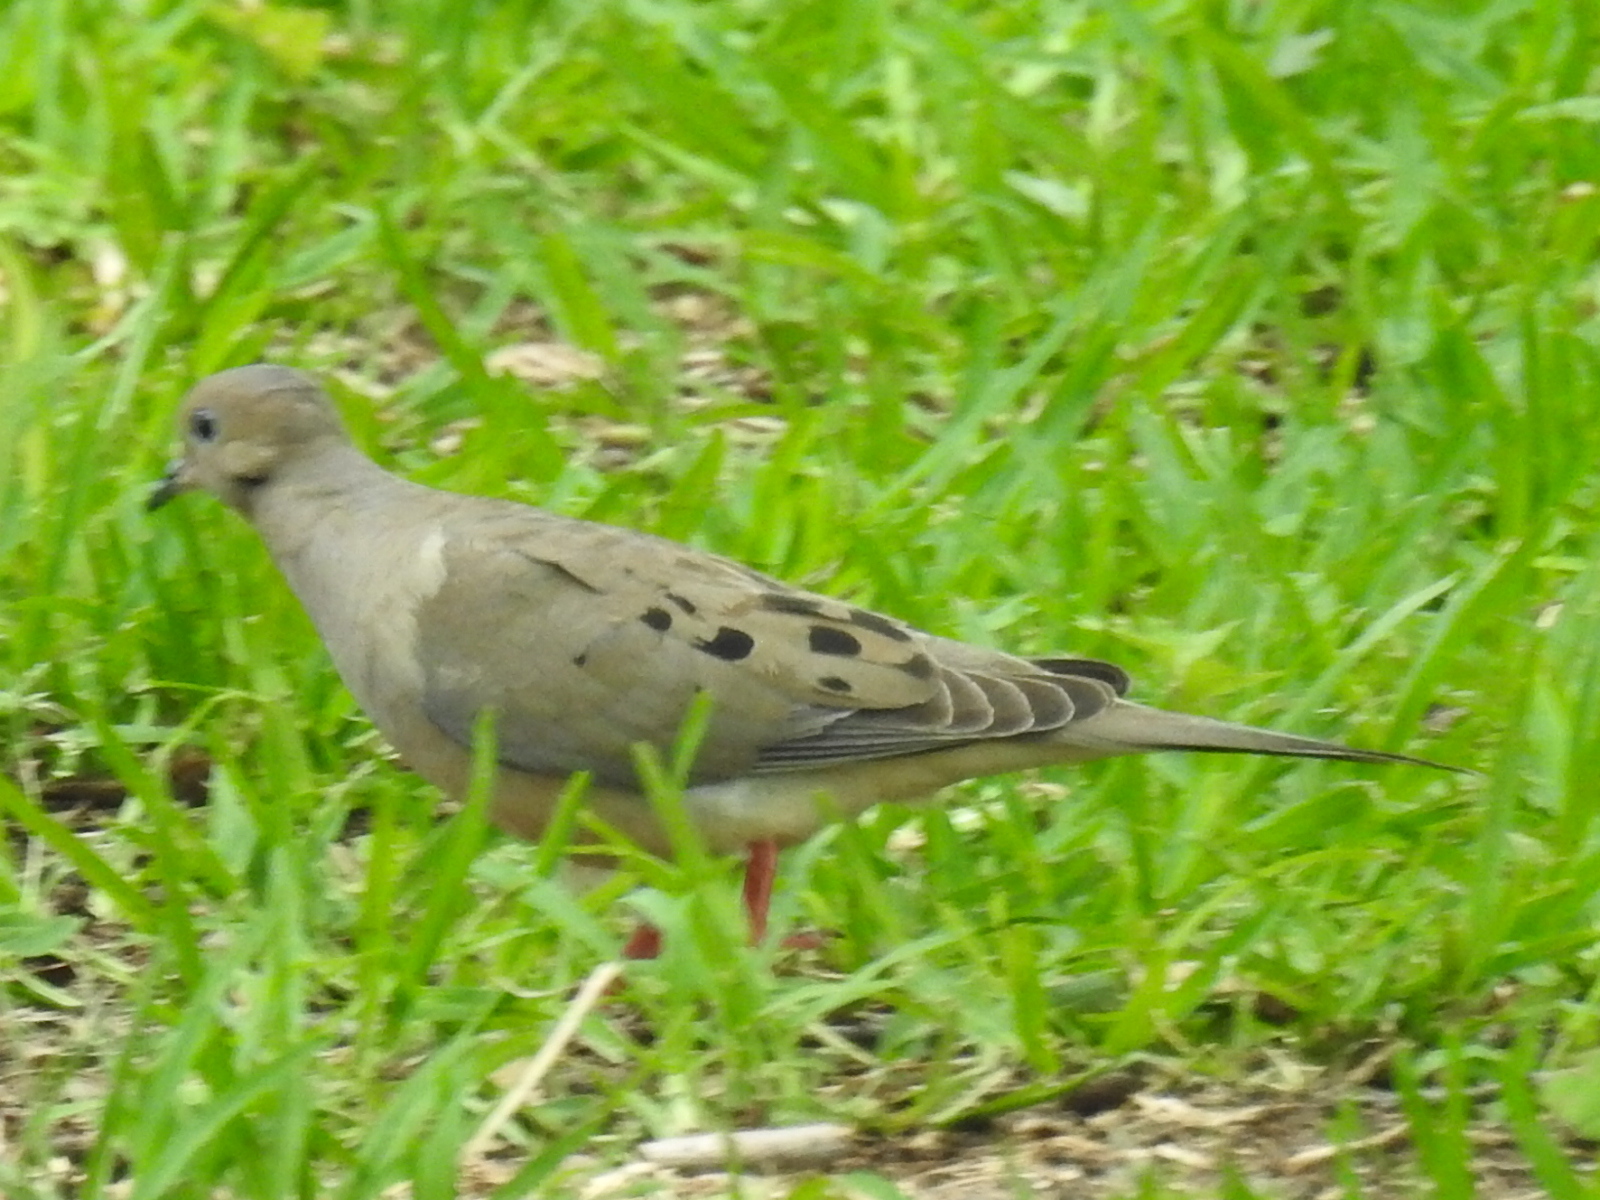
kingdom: Animalia
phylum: Chordata
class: Aves
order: Columbiformes
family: Columbidae
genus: Zenaida
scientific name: Zenaida macroura
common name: Mourning dove
